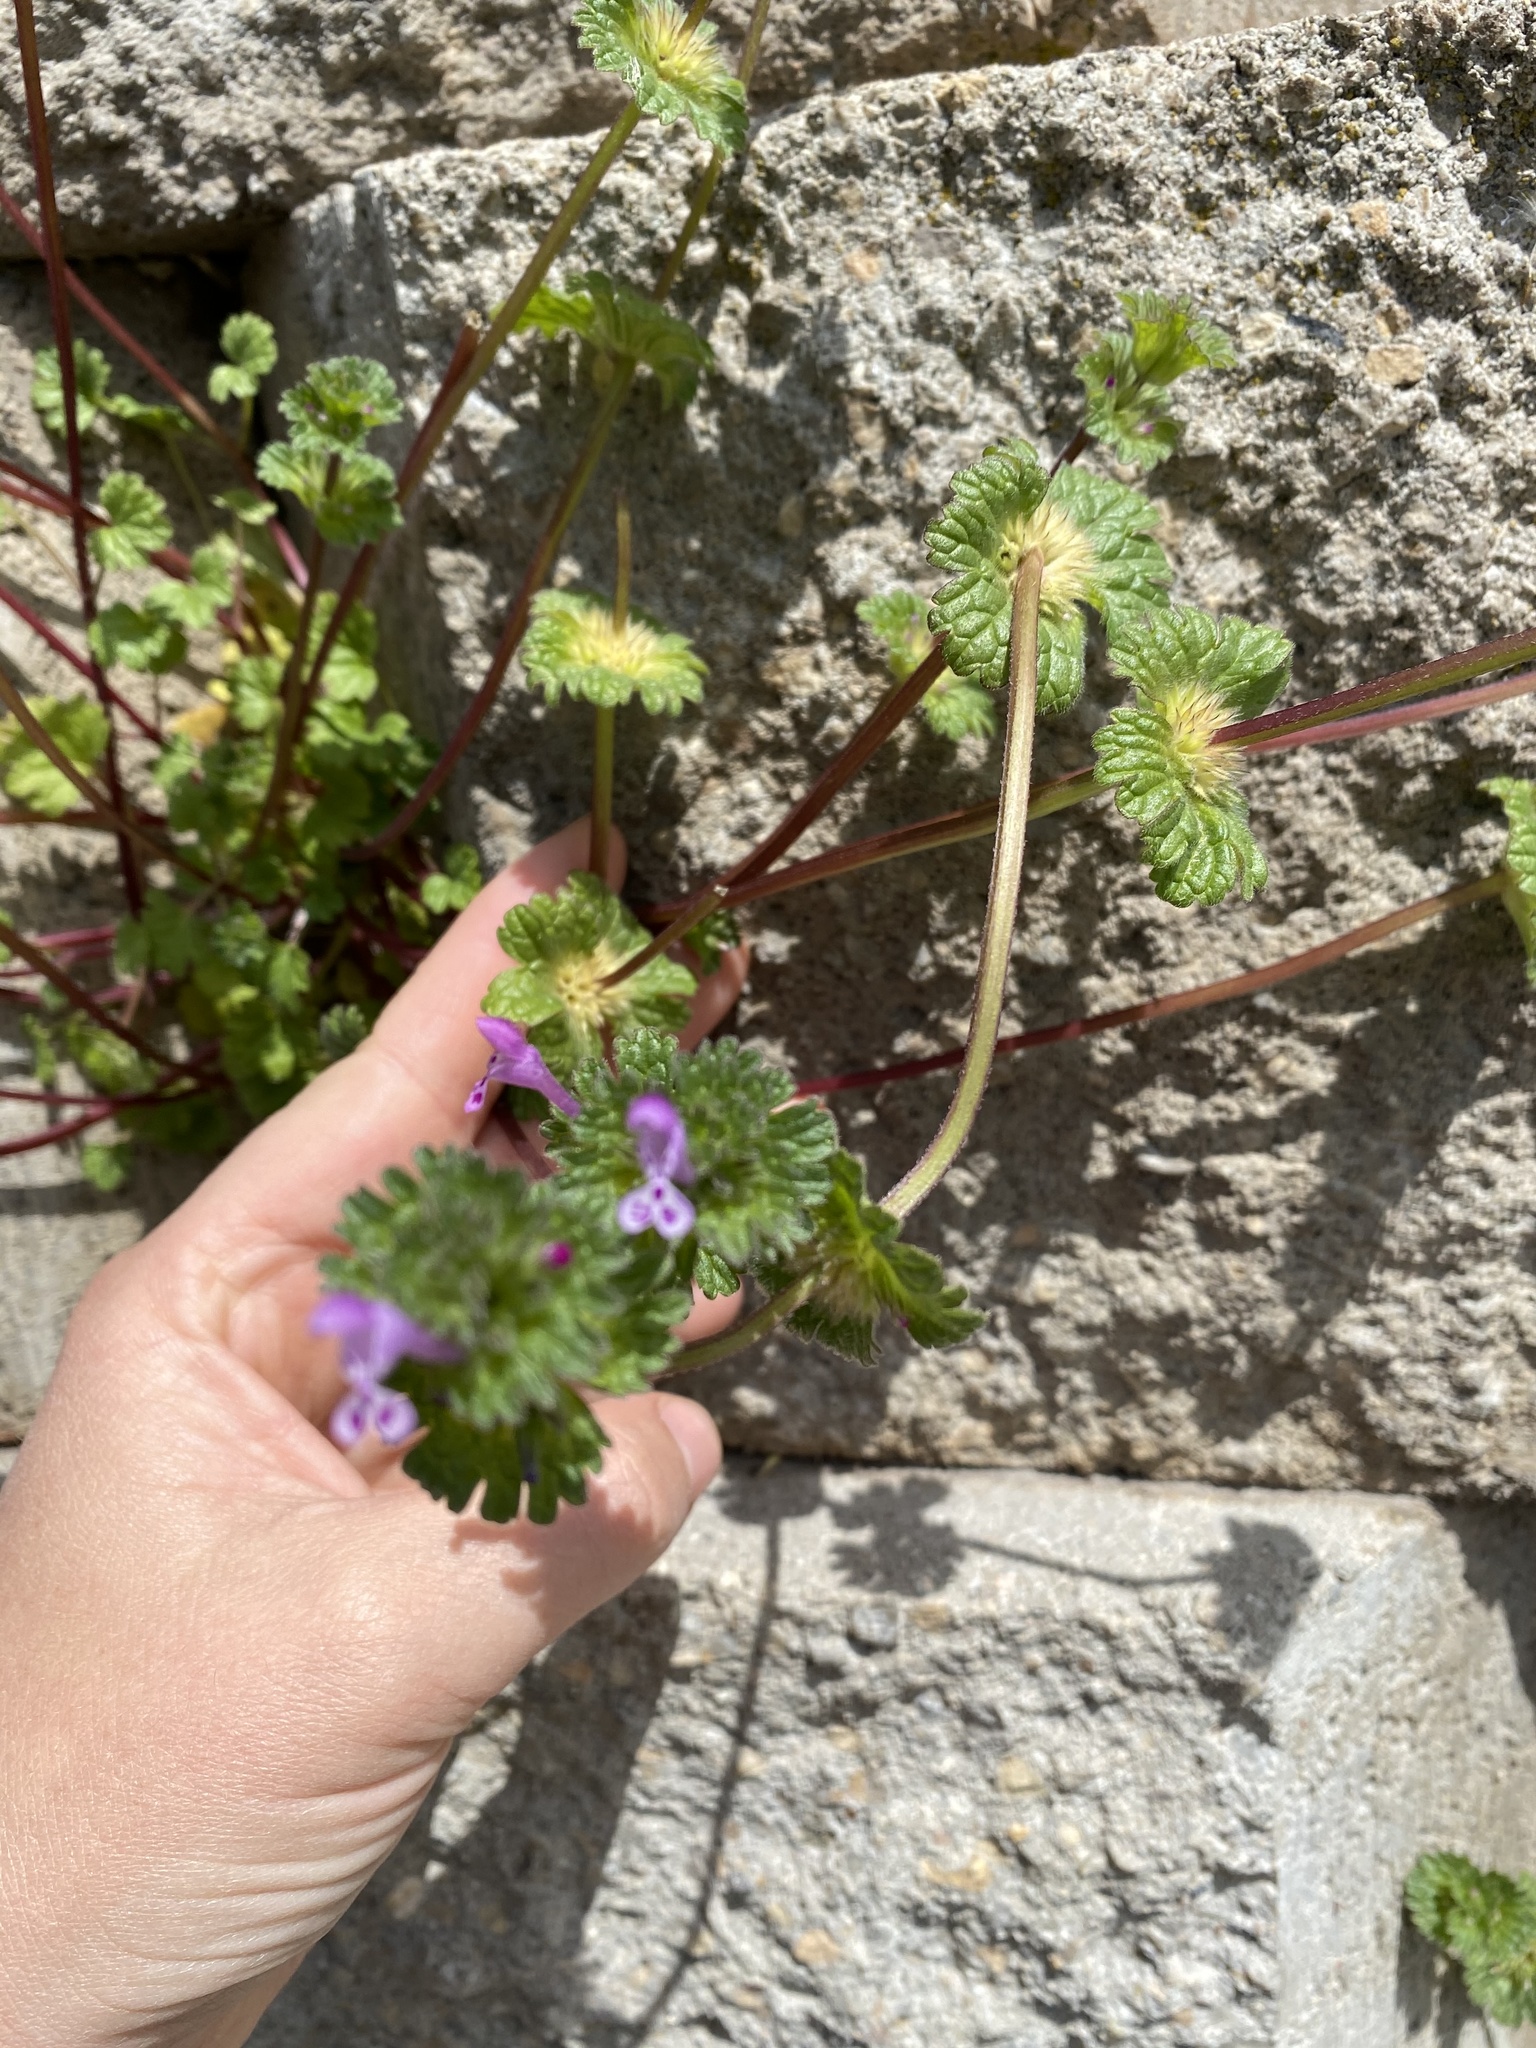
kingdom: Plantae
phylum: Tracheophyta
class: Magnoliopsida
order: Lamiales
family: Lamiaceae
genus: Lamium
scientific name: Lamium amplexicaule
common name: Henbit dead-nettle
